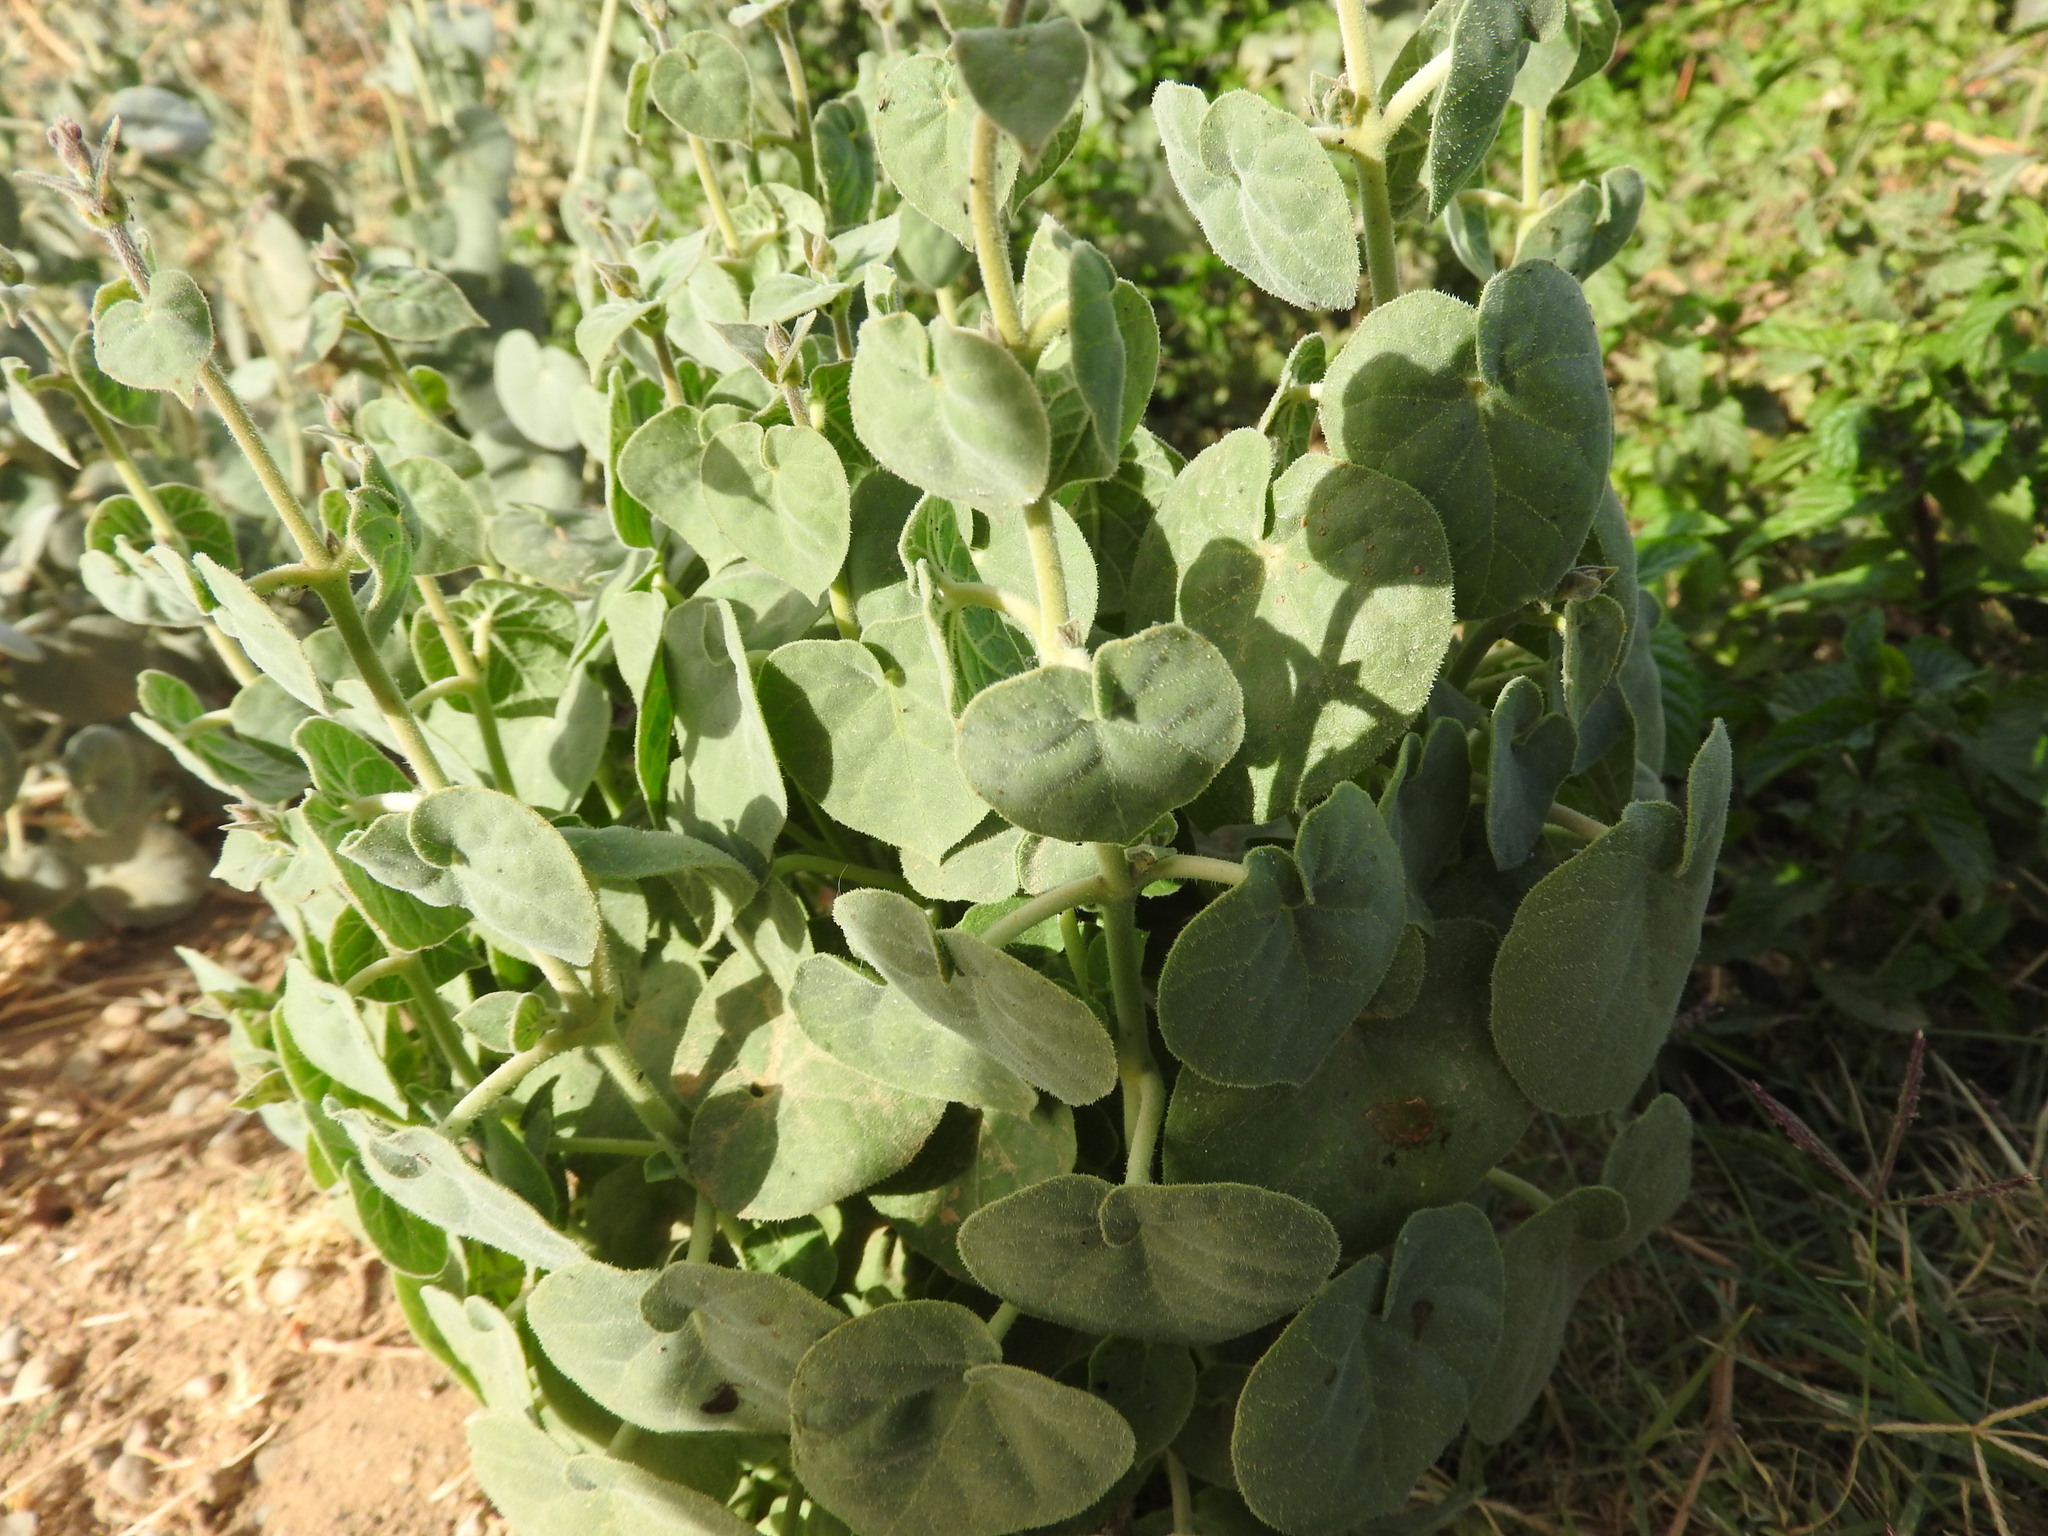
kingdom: Plantae
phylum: Tracheophyta
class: Magnoliopsida
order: Gentianales
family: Apocynaceae
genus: Pergularia
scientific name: Pergularia tomentosa
